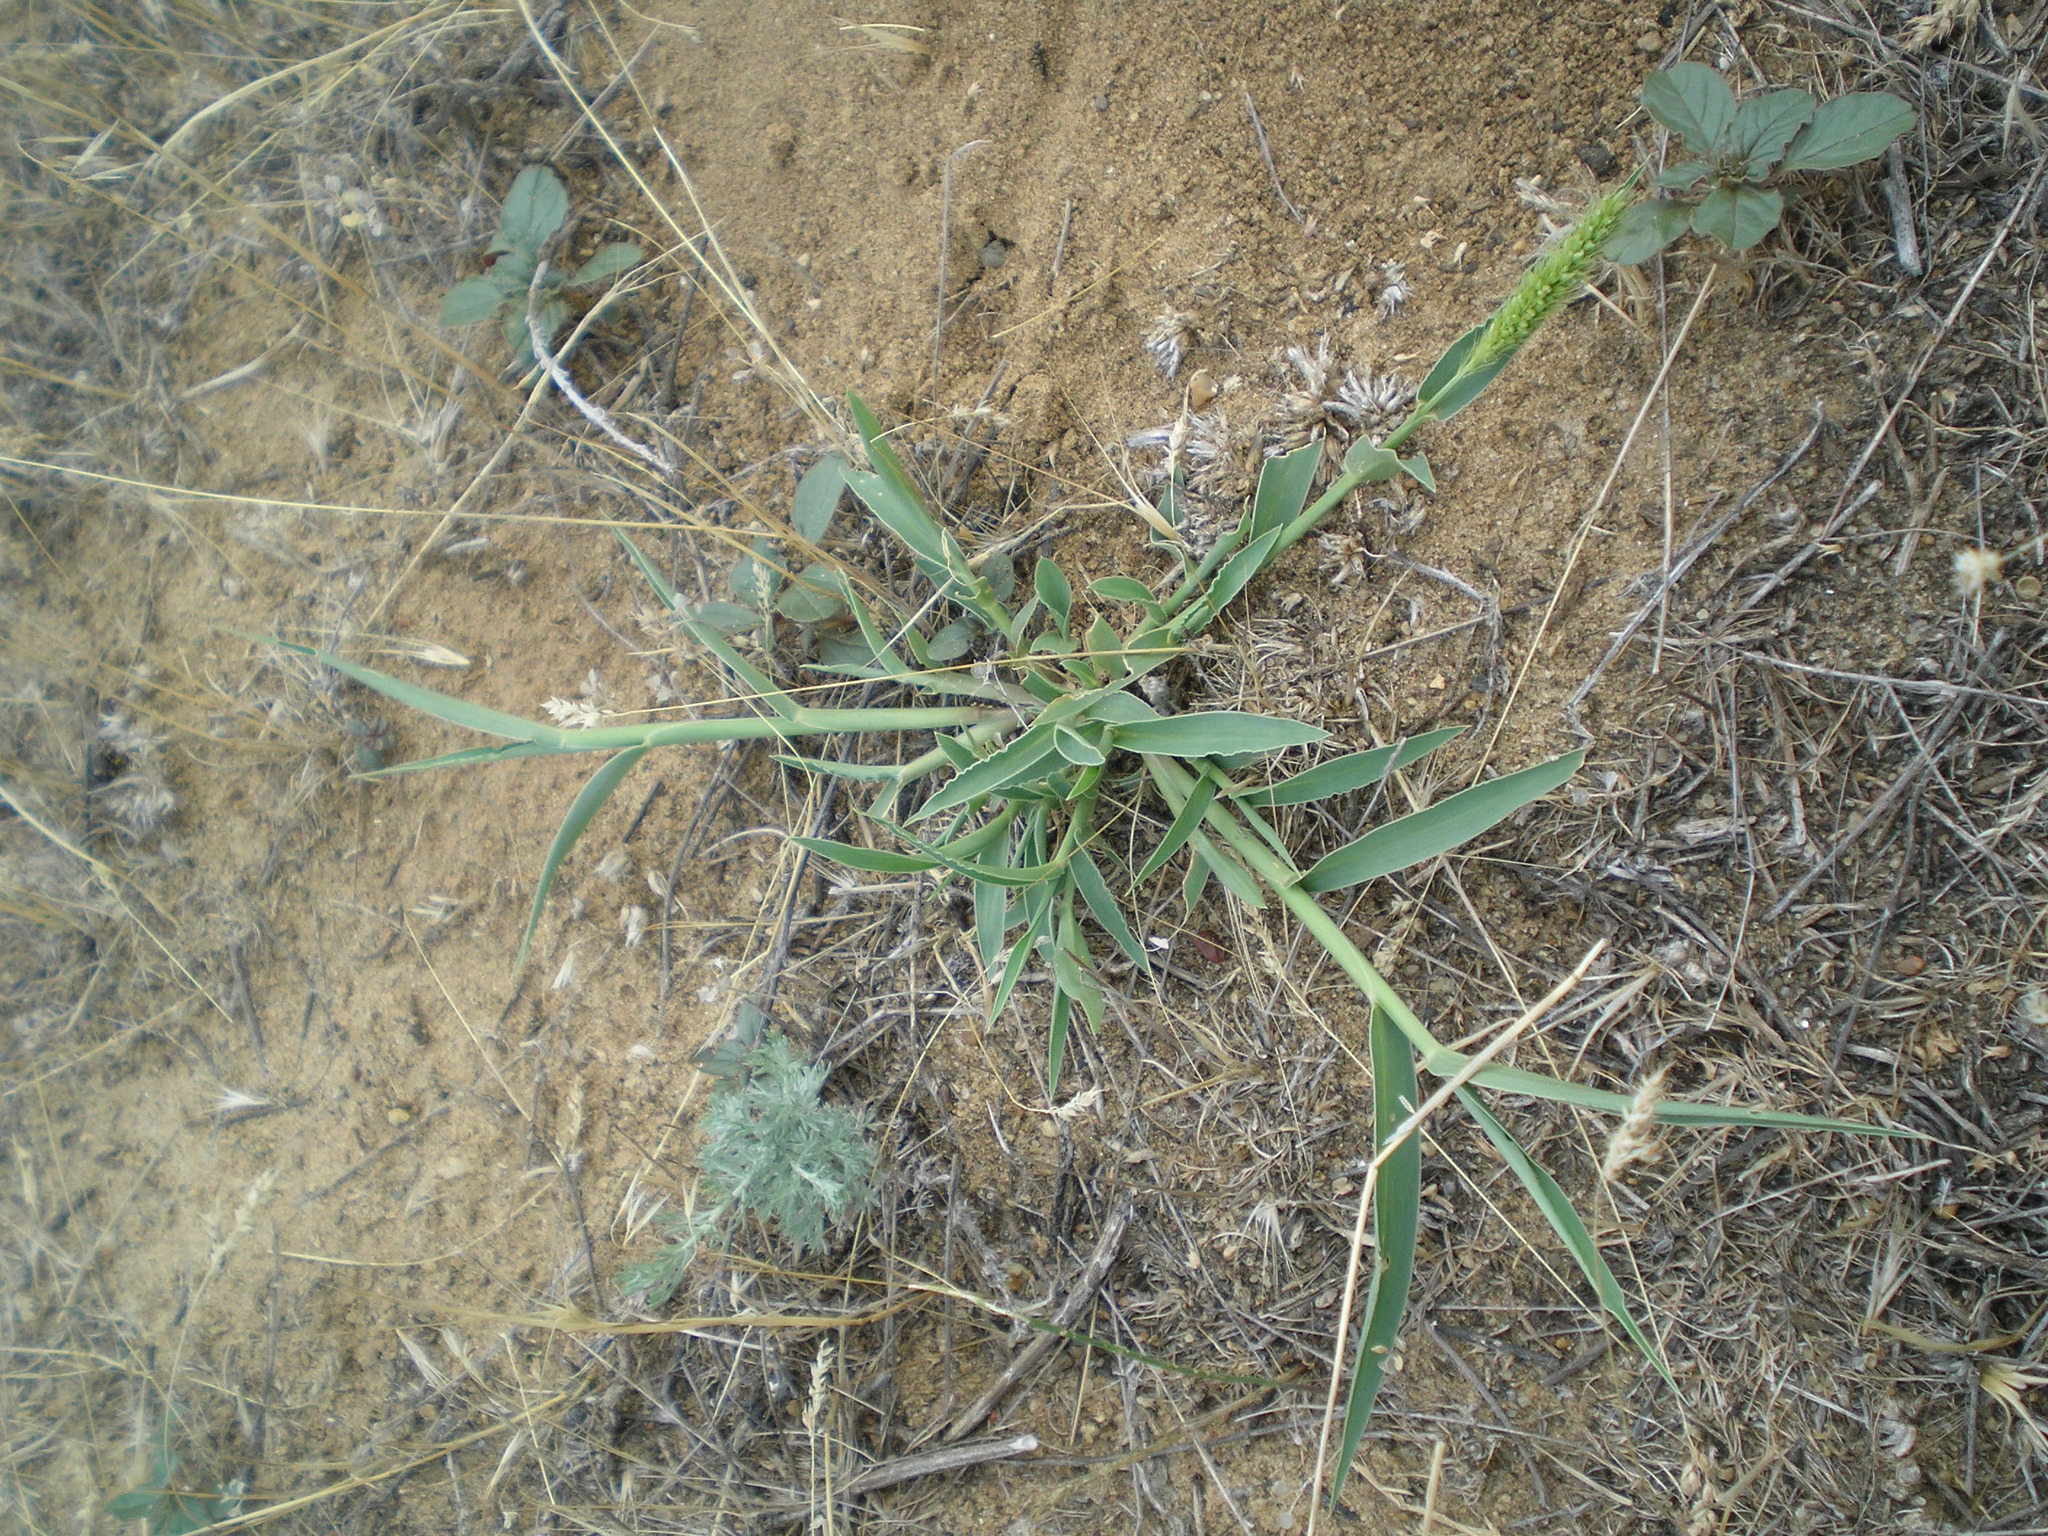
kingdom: Plantae
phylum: Tracheophyta
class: Liliopsida
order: Poales
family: Poaceae
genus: Setaria
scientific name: Setaria viridis
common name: Green bristlegrass
